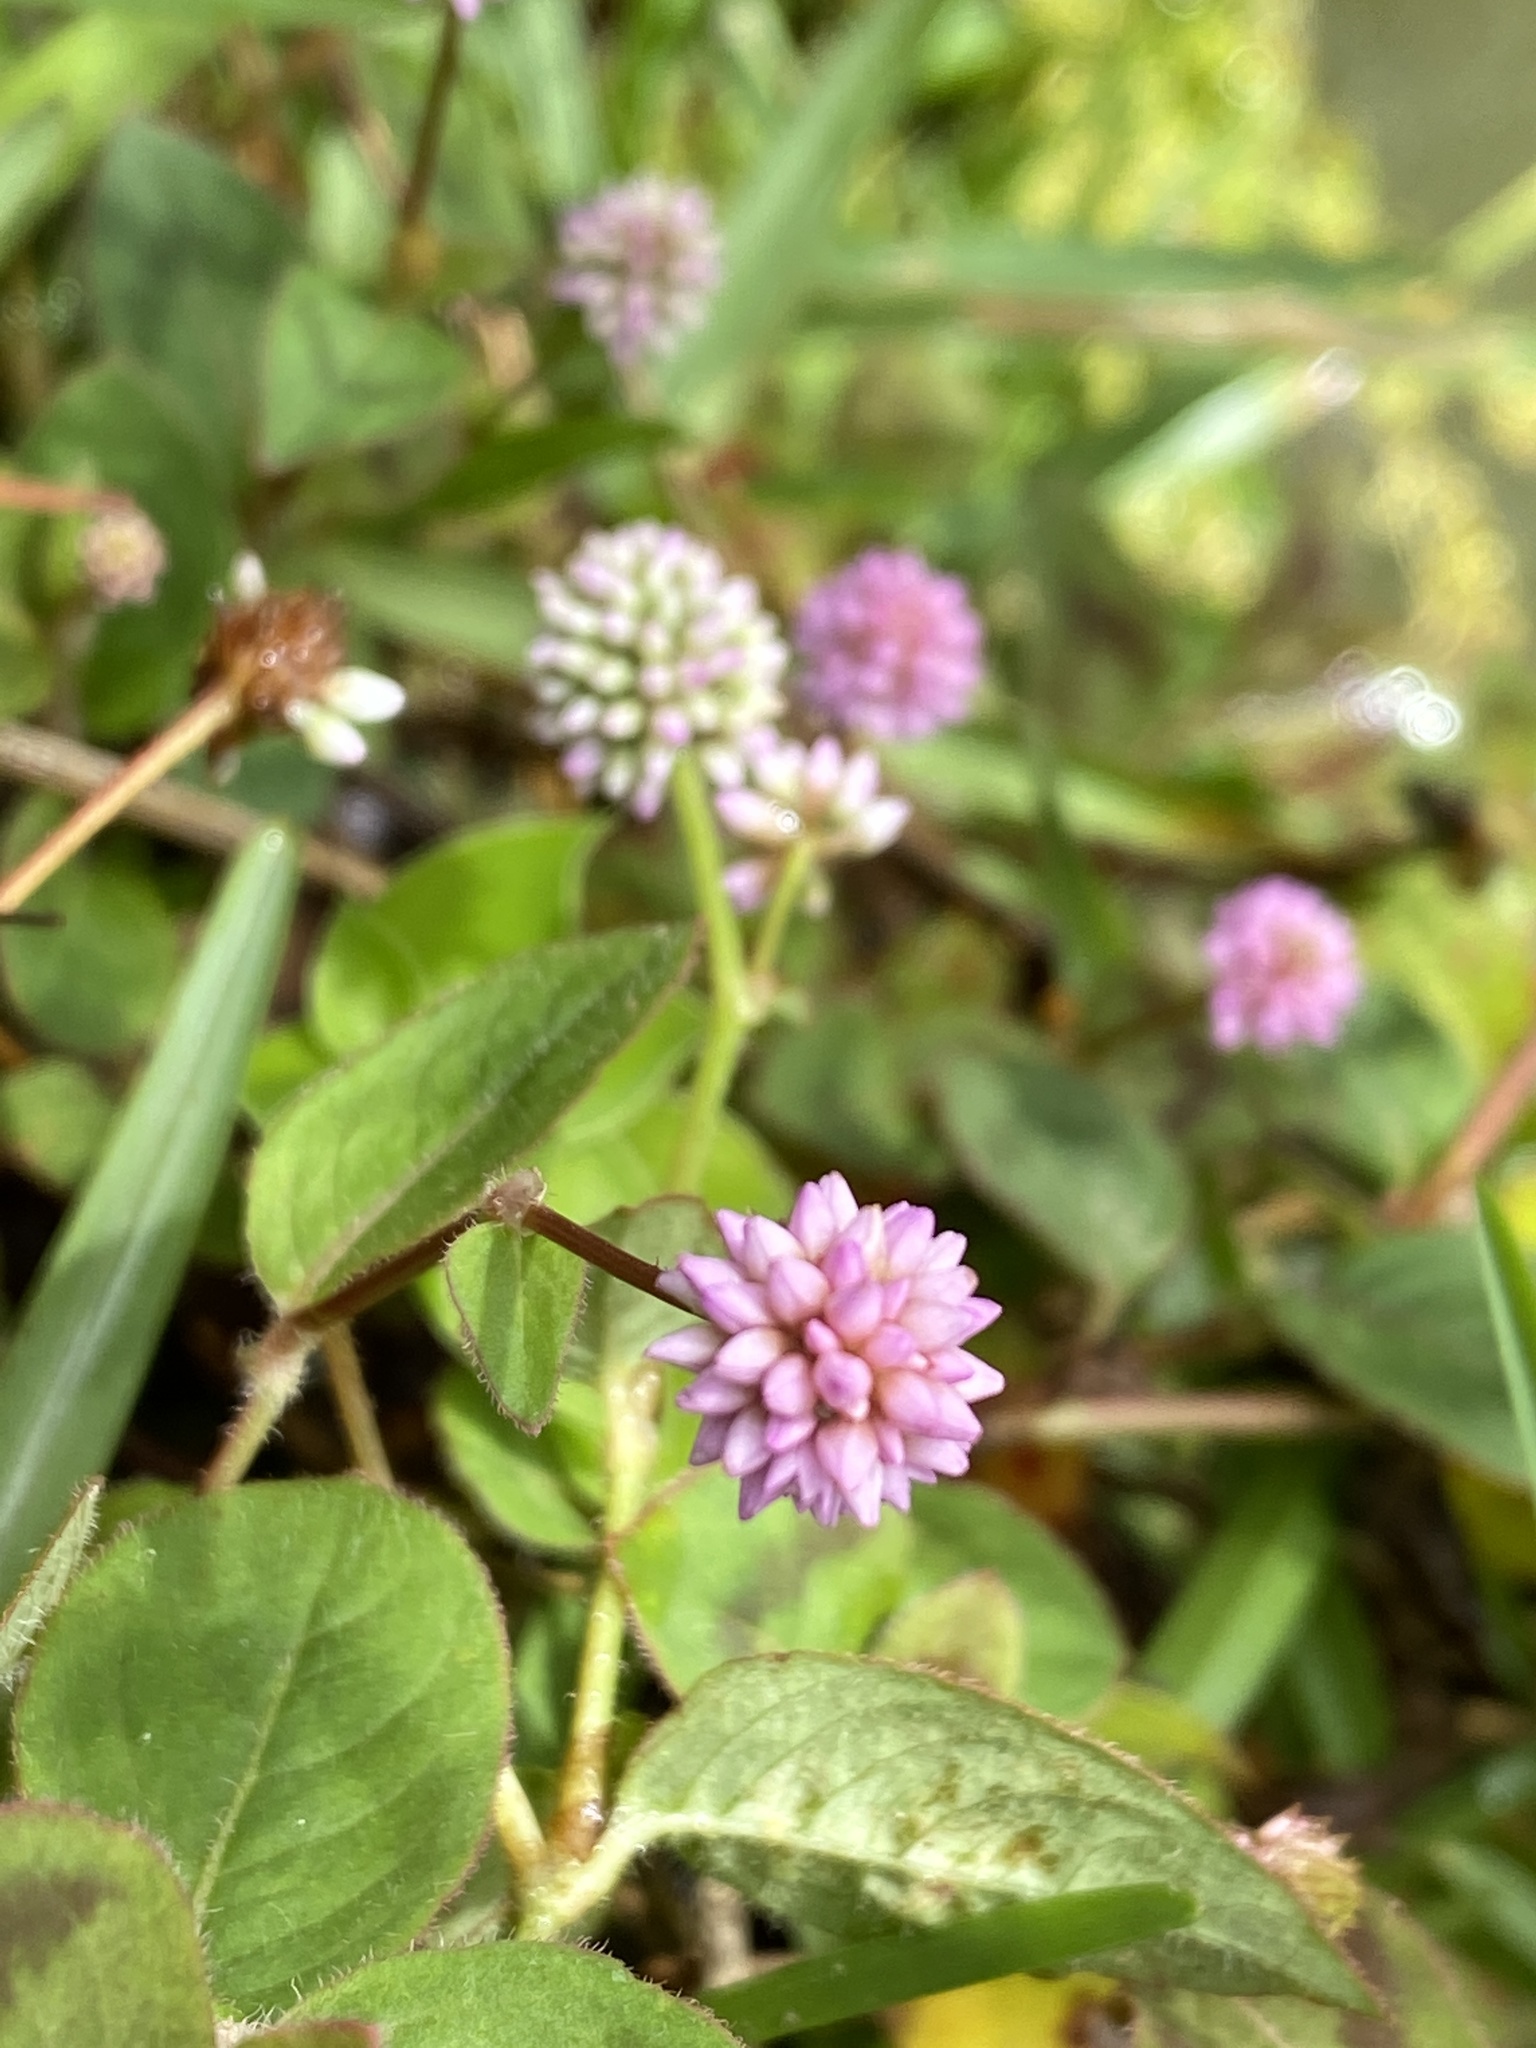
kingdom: Plantae
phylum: Tracheophyta
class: Magnoliopsida
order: Caryophyllales
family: Polygonaceae
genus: Persicaria
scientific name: Persicaria capitata
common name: Pinkhead smartweed
